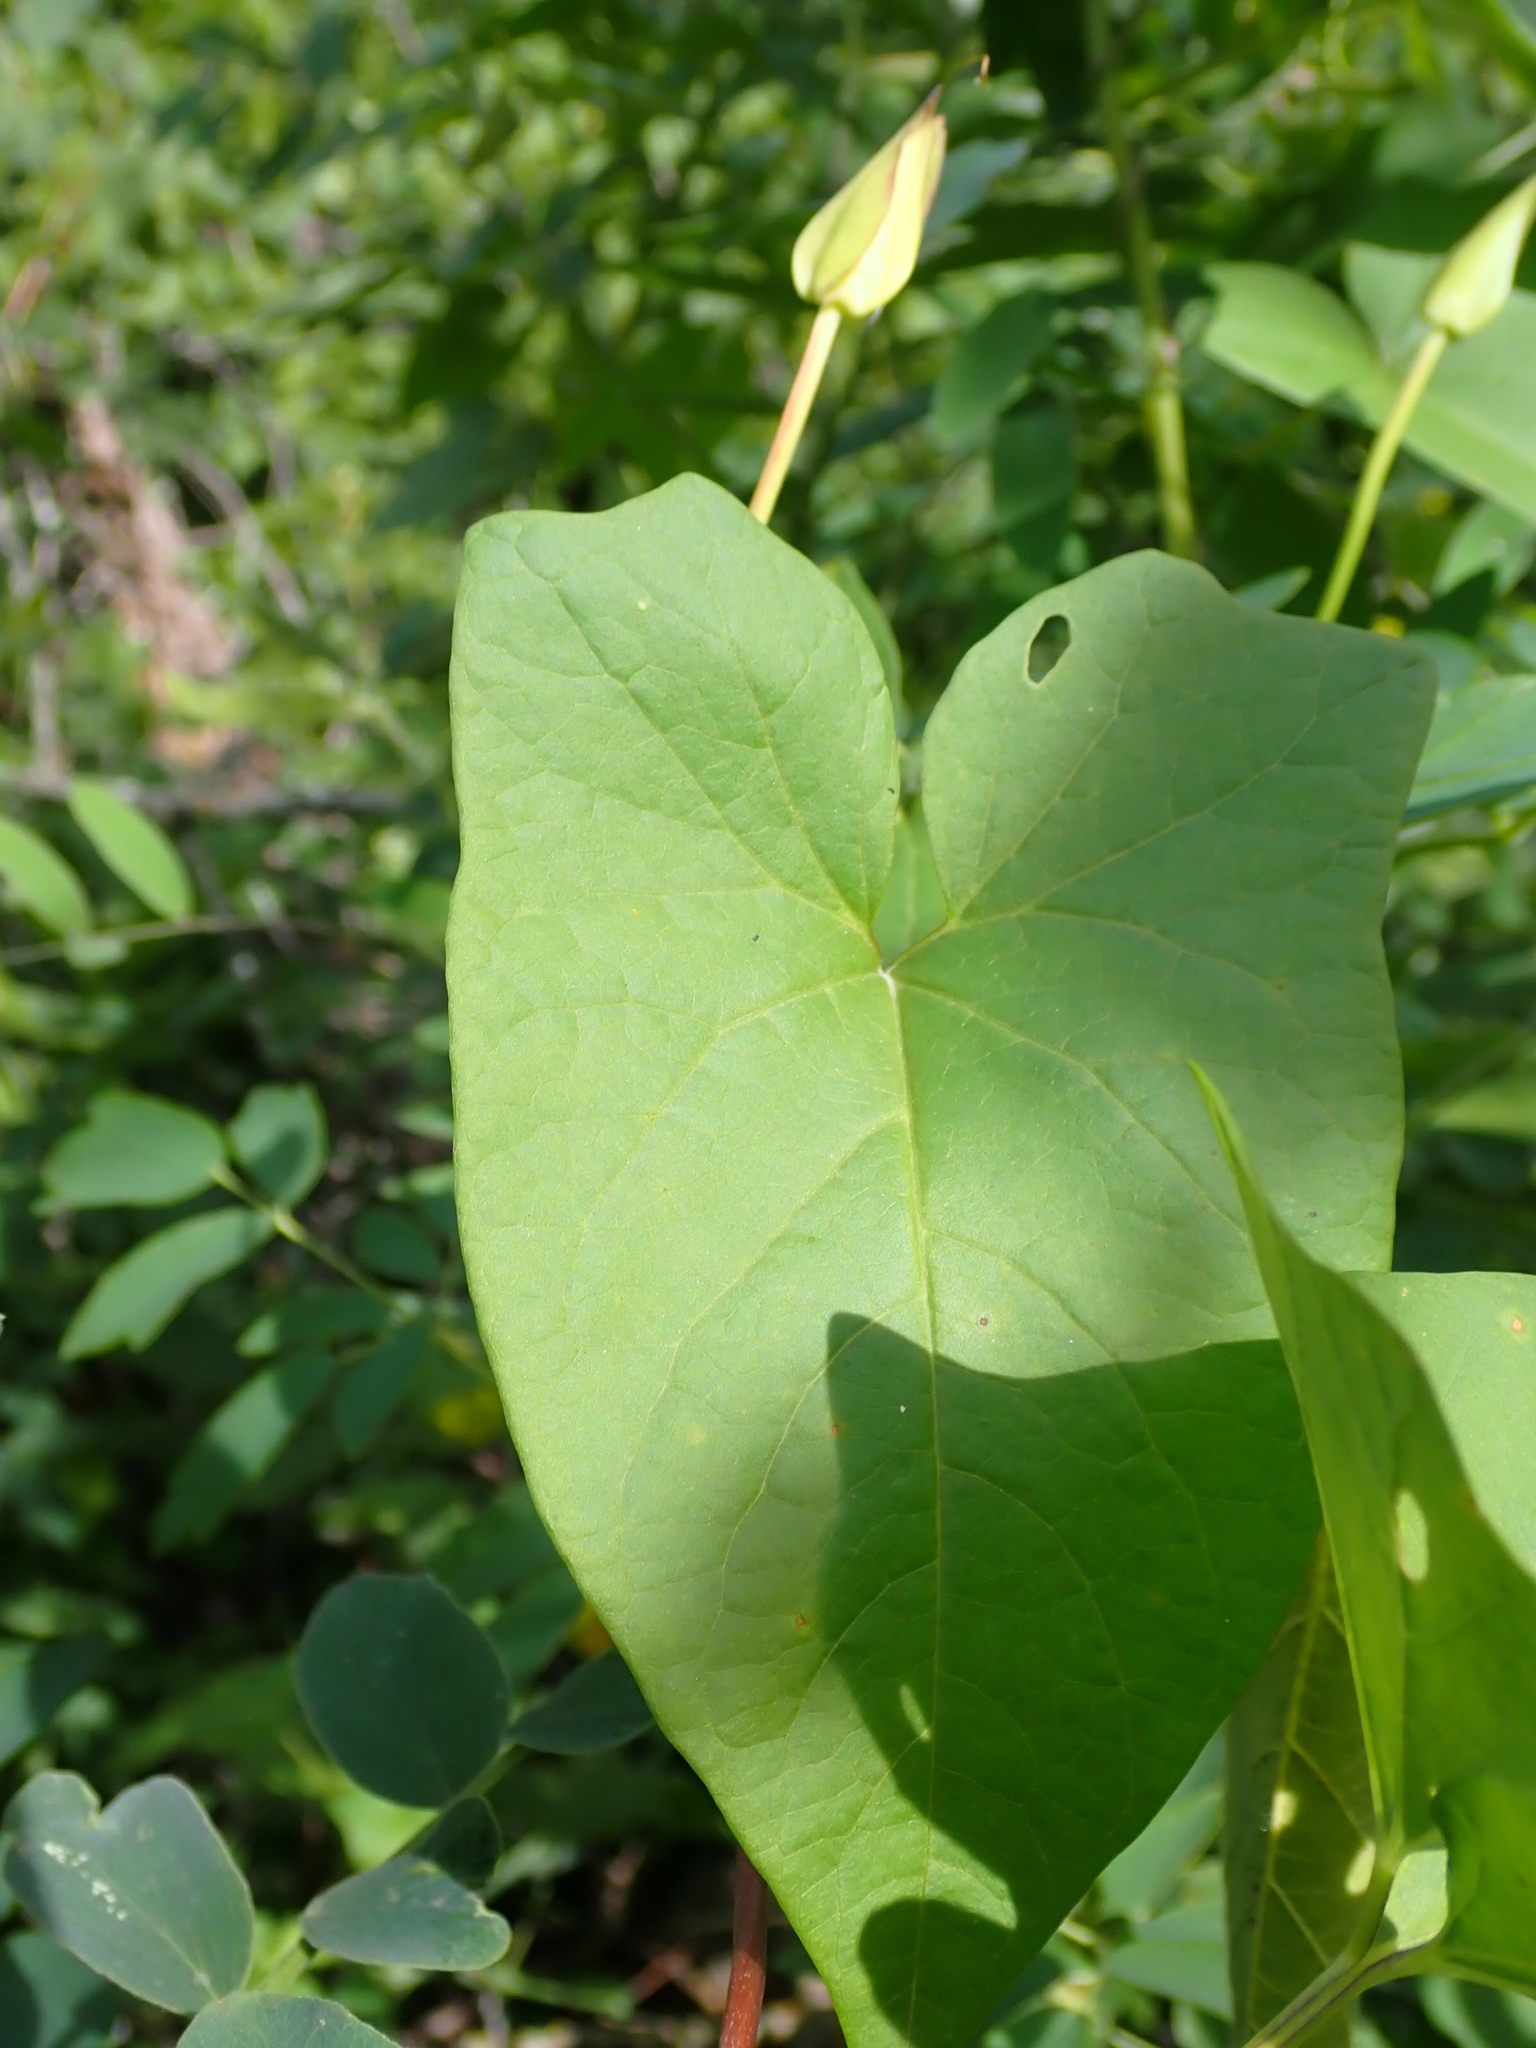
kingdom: Plantae
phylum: Tracheophyta
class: Magnoliopsida
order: Solanales
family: Convolvulaceae
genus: Calystegia
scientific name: Calystegia sepium
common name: Hedge bindweed
